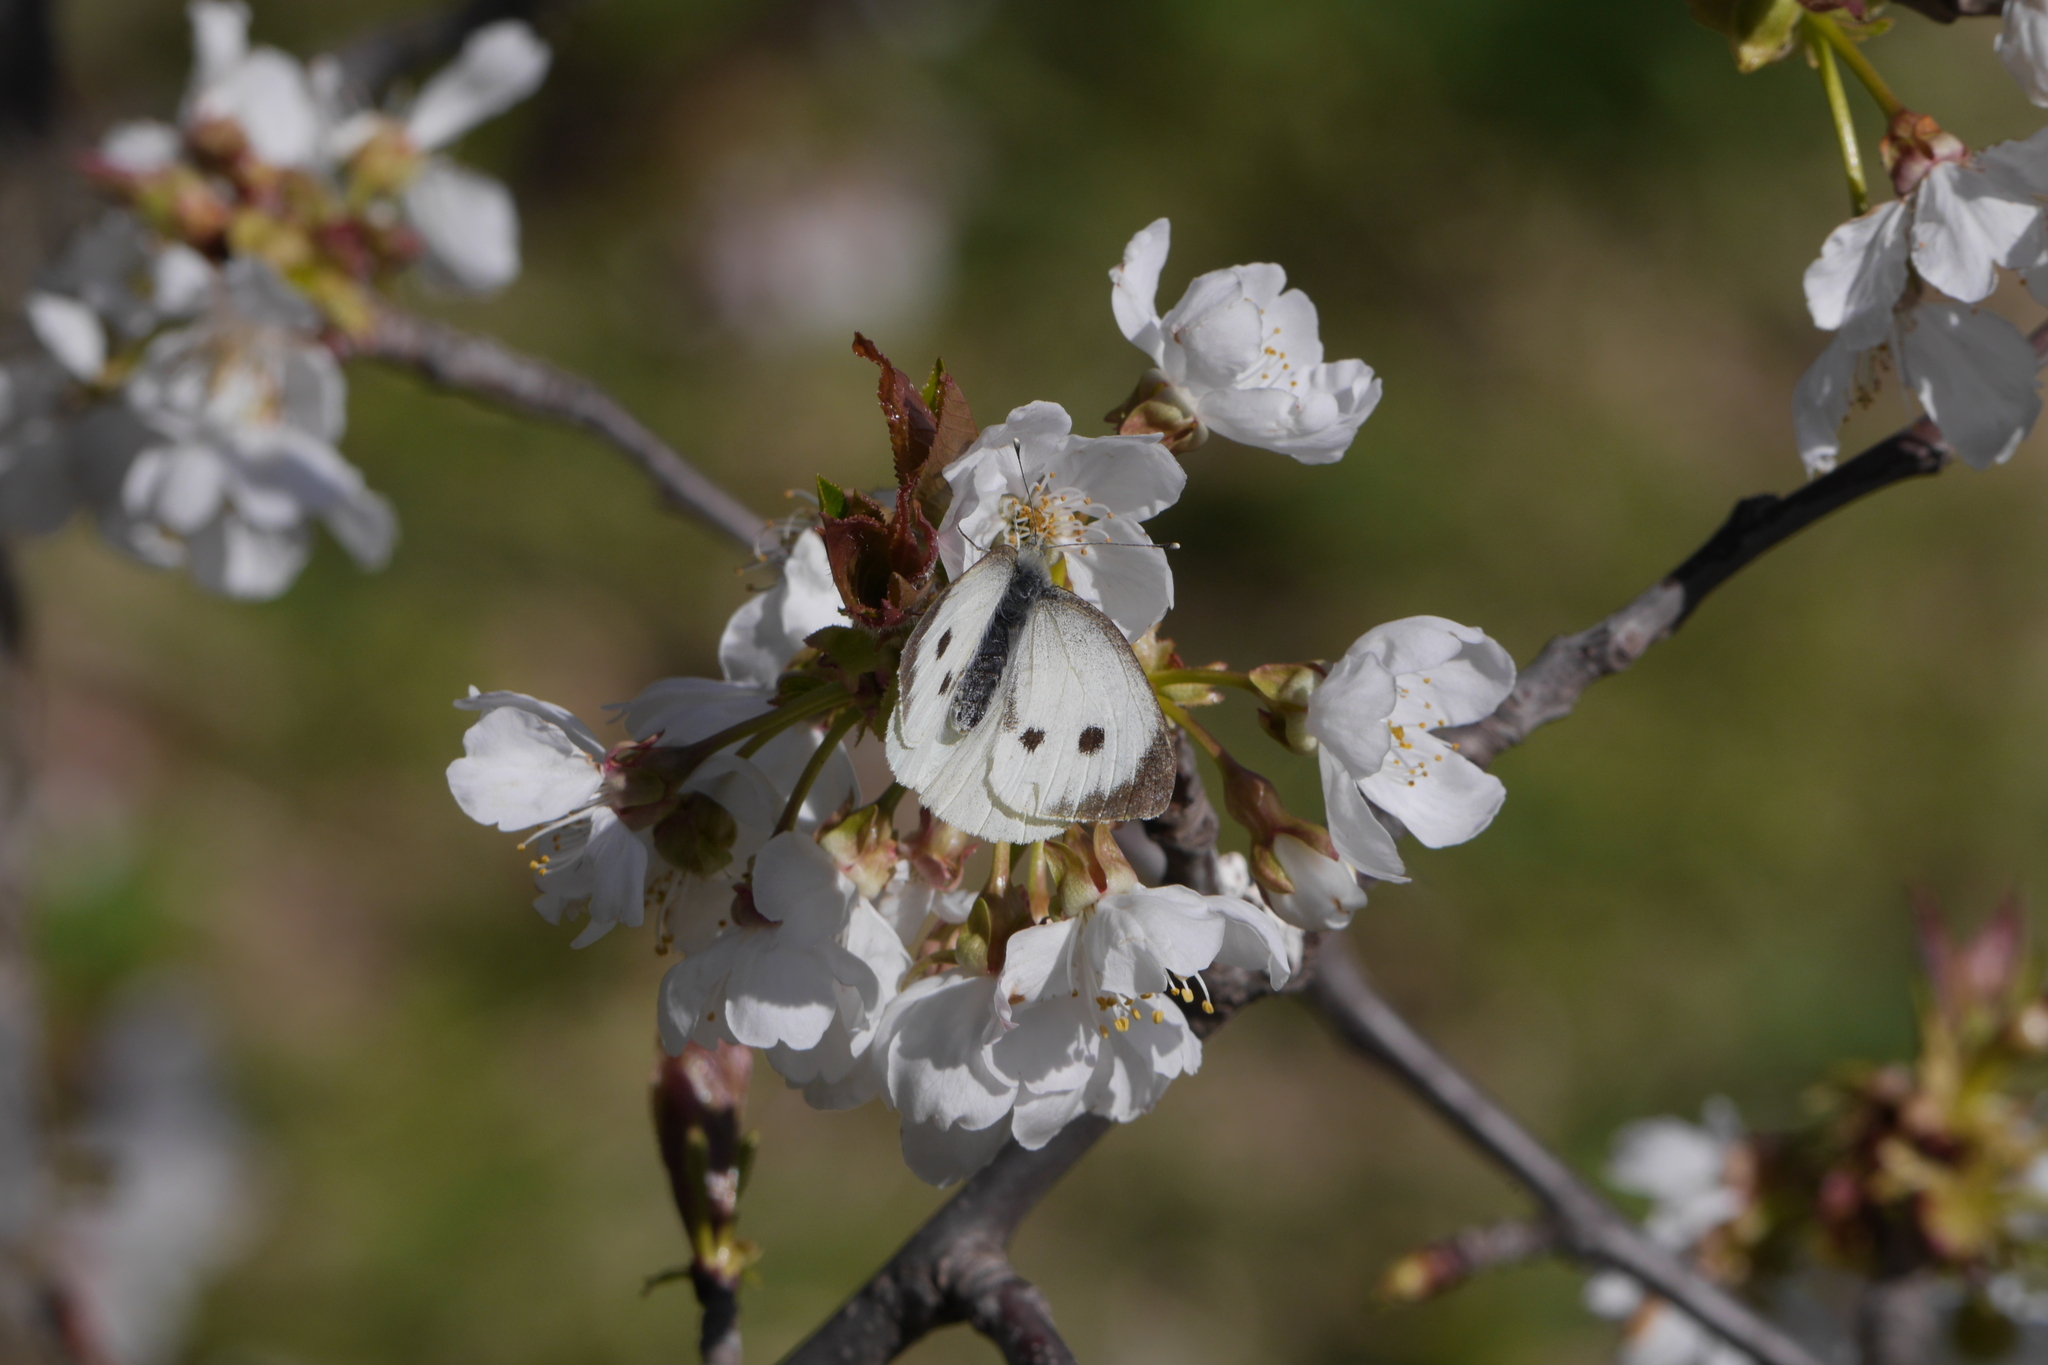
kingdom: Animalia
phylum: Arthropoda
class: Insecta
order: Lepidoptera
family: Pieridae
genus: Pieris
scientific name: Pieris brassicae
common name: Large white
